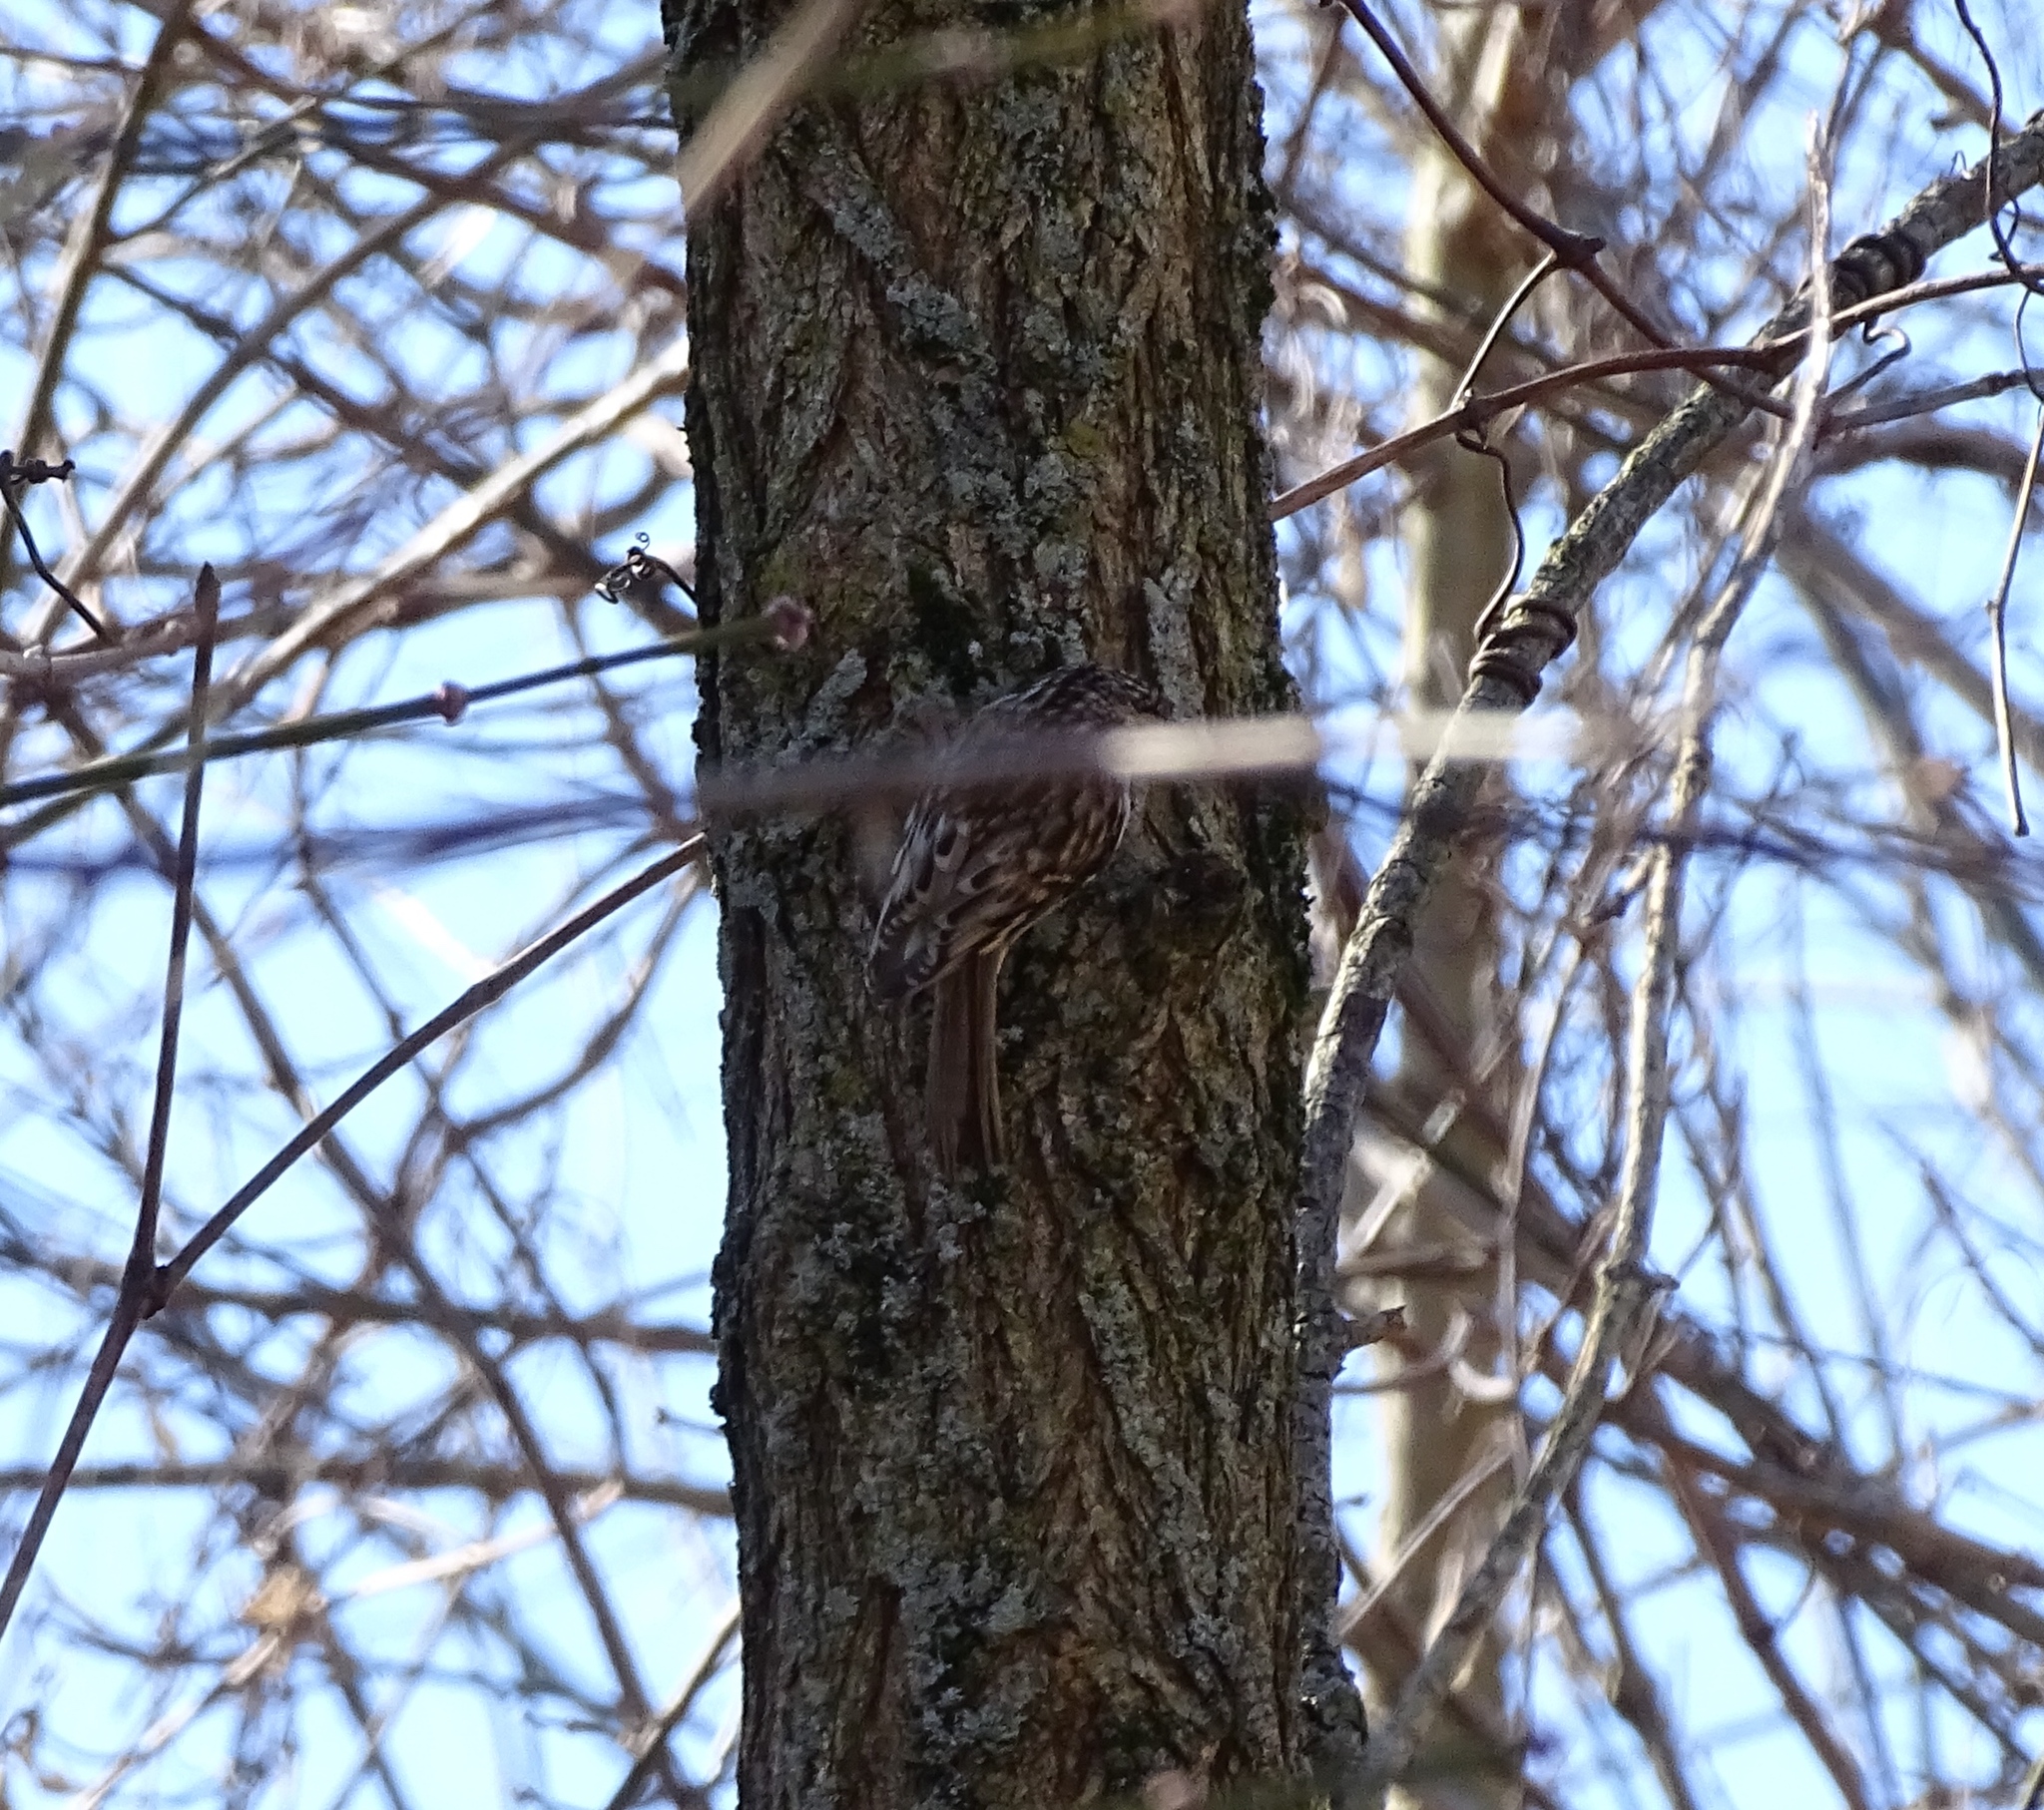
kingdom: Animalia
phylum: Chordata
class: Aves
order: Passeriformes
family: Certhiidae
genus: Certhia
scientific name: Certhia americana
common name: Brown creeper
